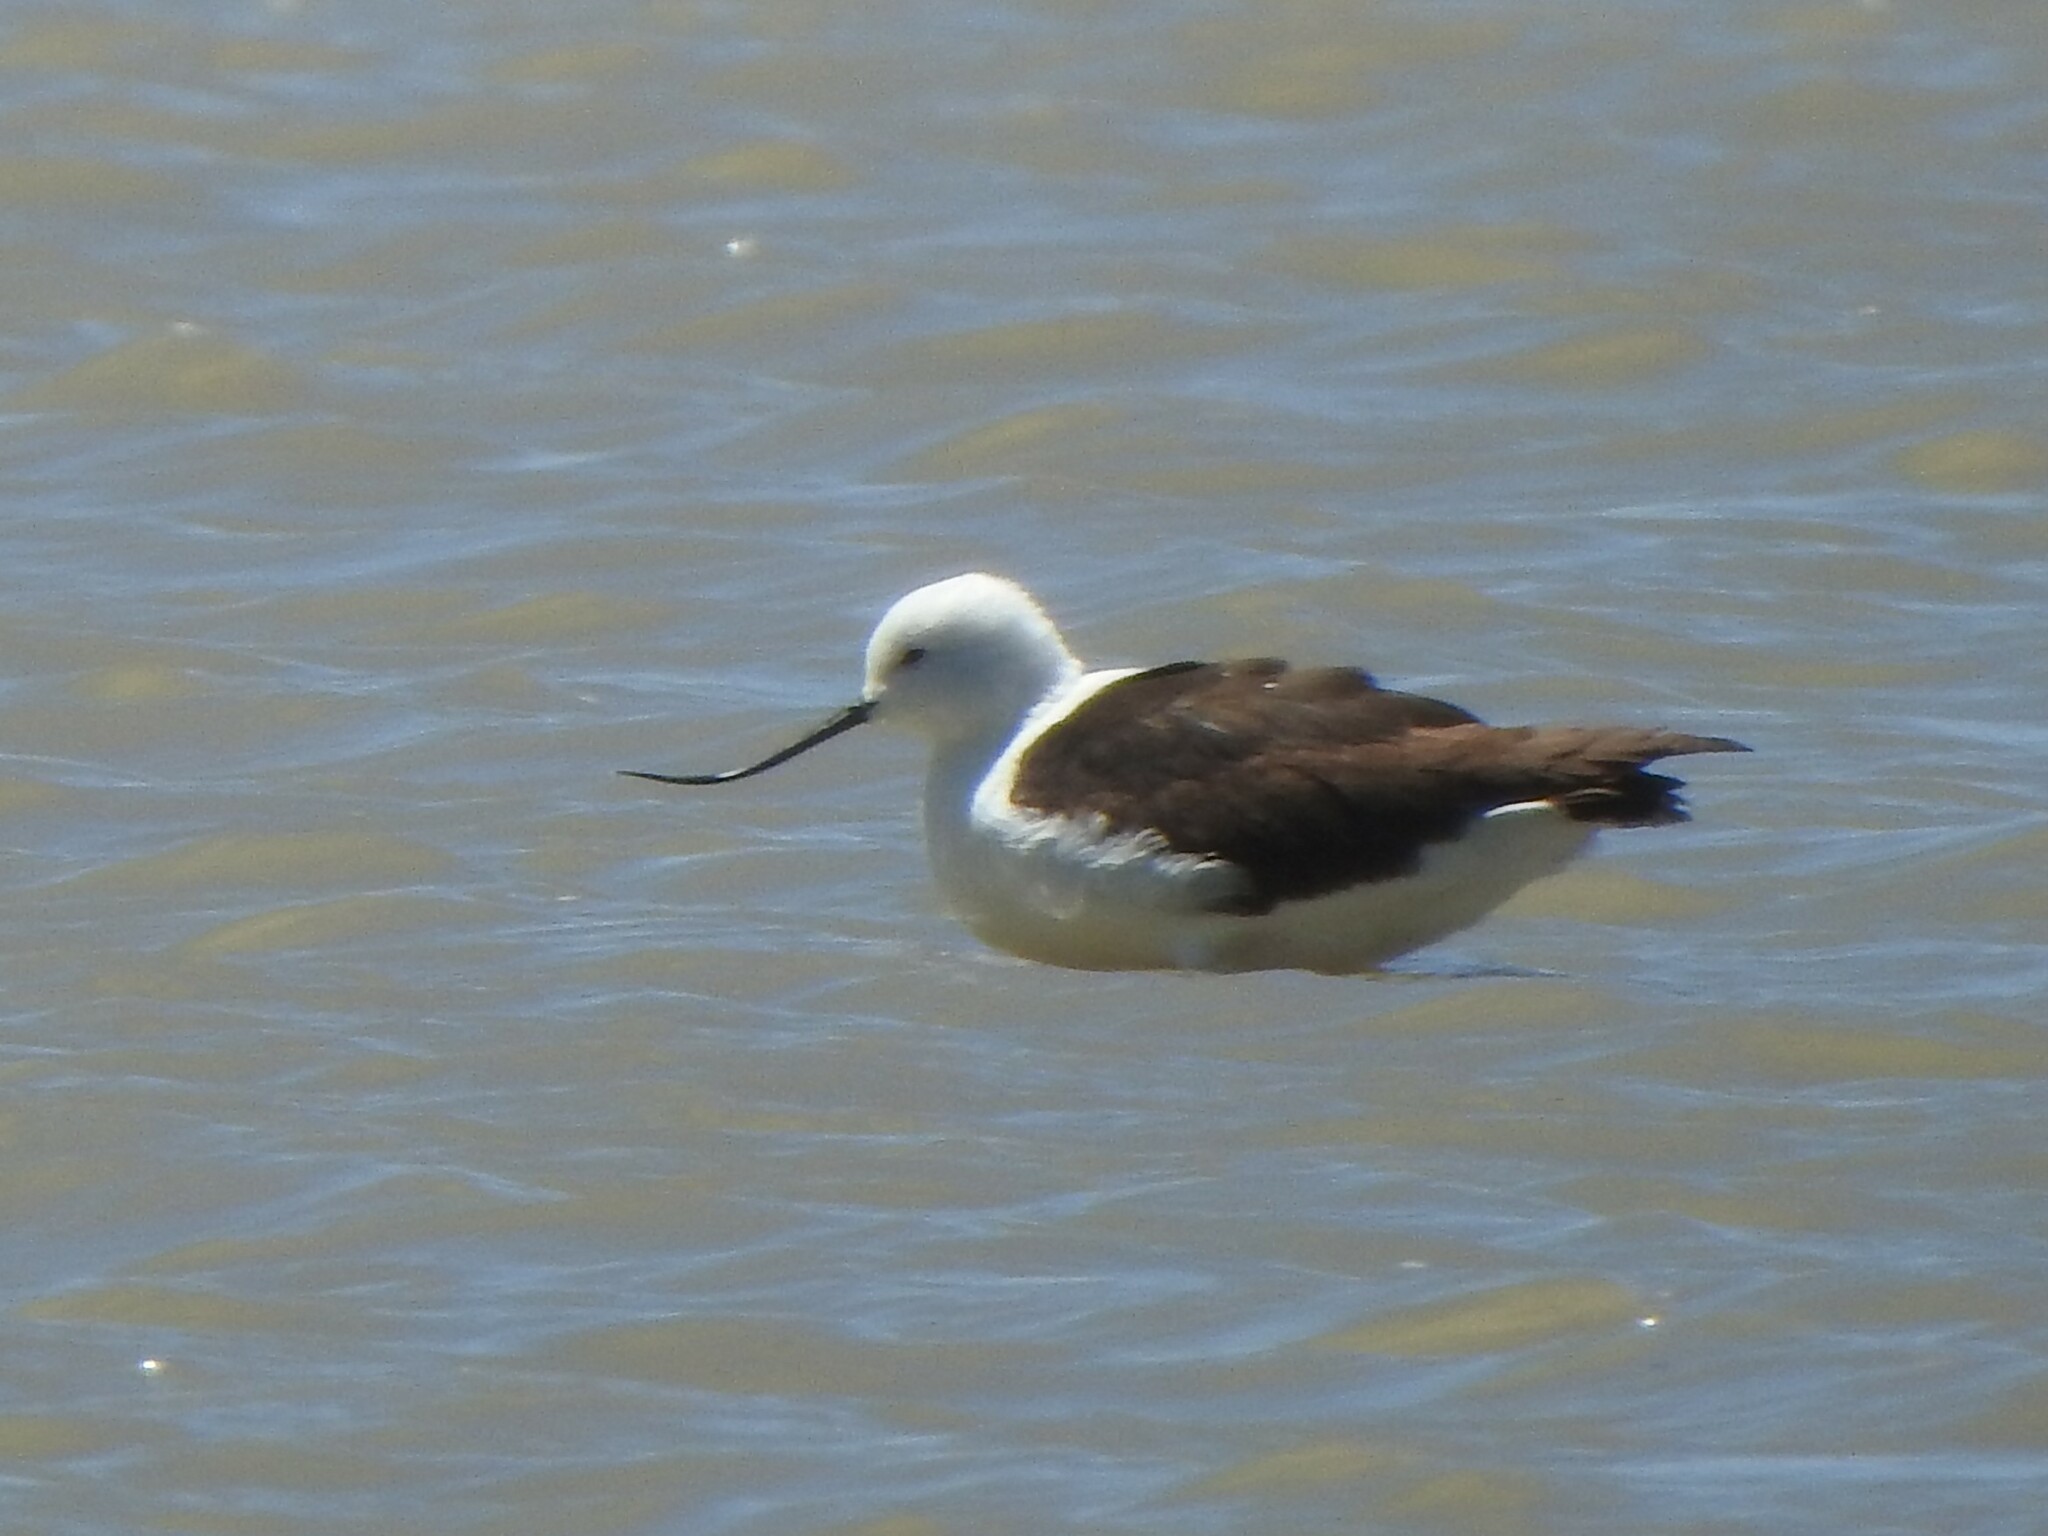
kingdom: Animalia
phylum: Chordata
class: Aves
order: Charadriiformes
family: Recurvirostridae
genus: Recurvirostra
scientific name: Recurvirostra andina
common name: Andean avocet
